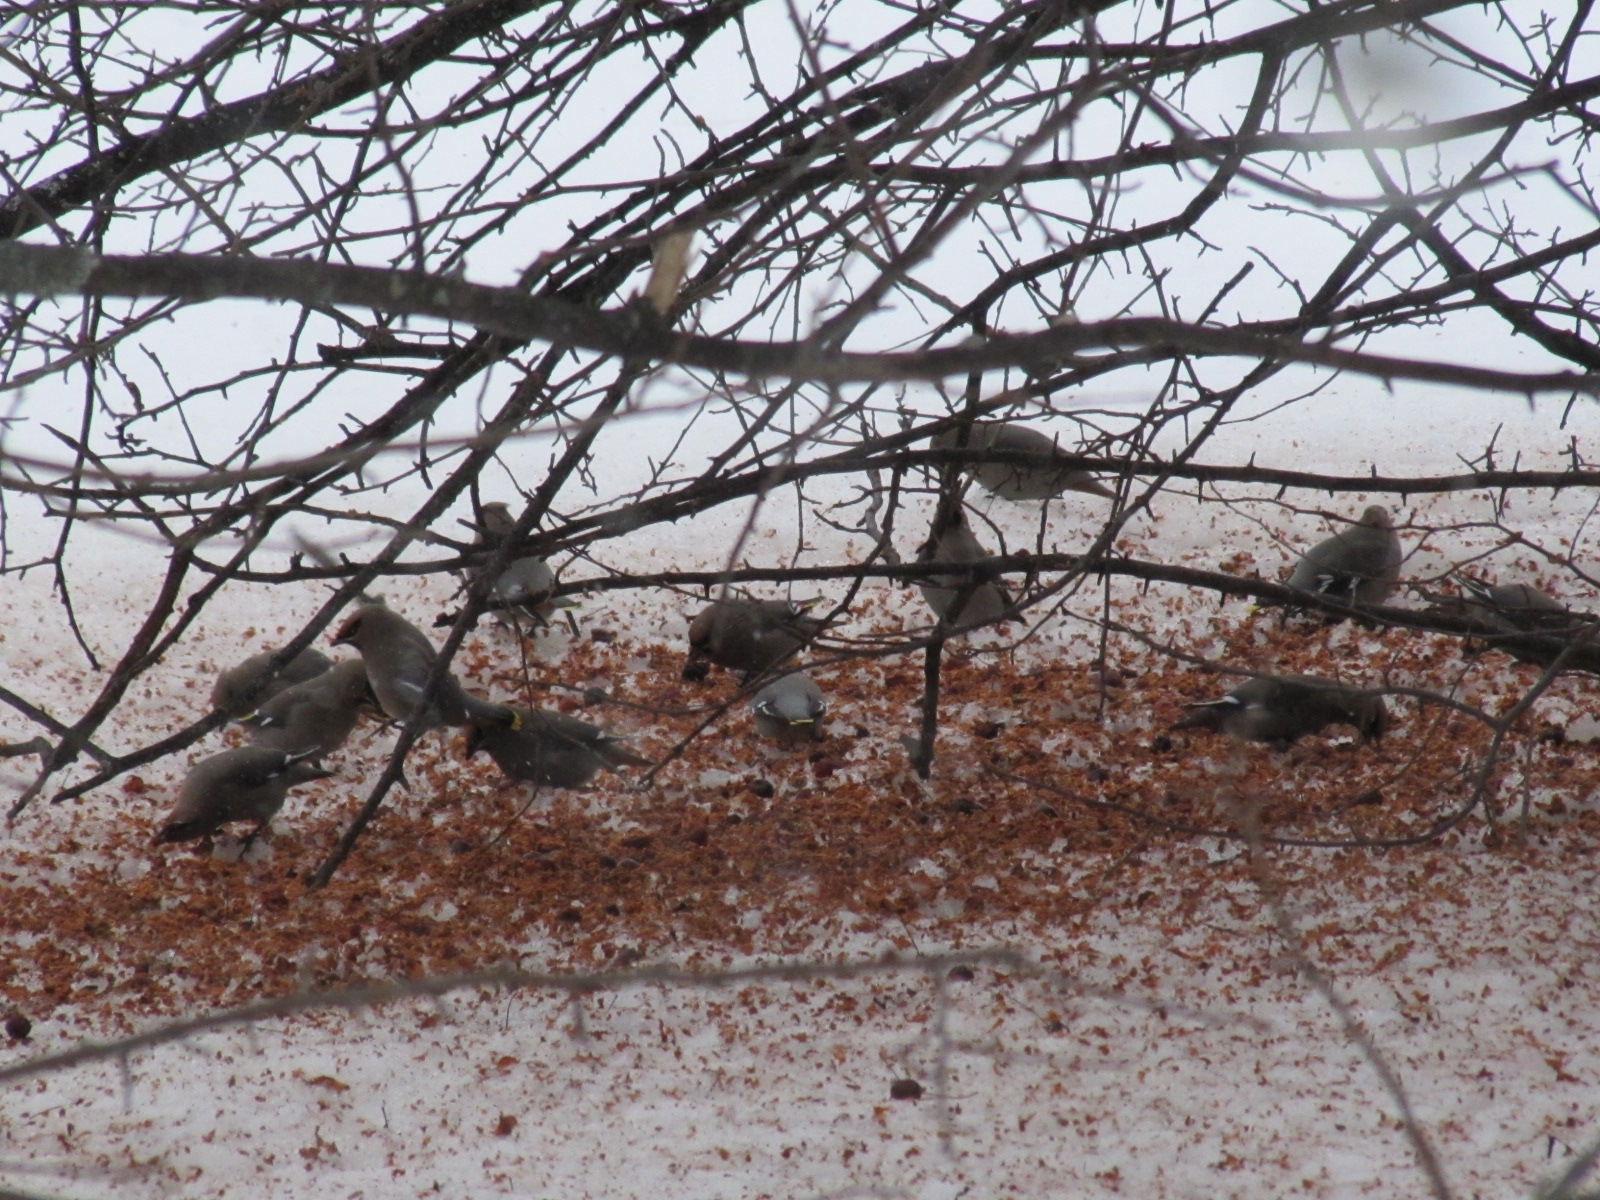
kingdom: Animalia
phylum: Chordata
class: Aves
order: Passeriformes
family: Bombycillidae
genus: Bombycilla
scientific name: Bombycilla garrulus
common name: Bohemian waxwing
